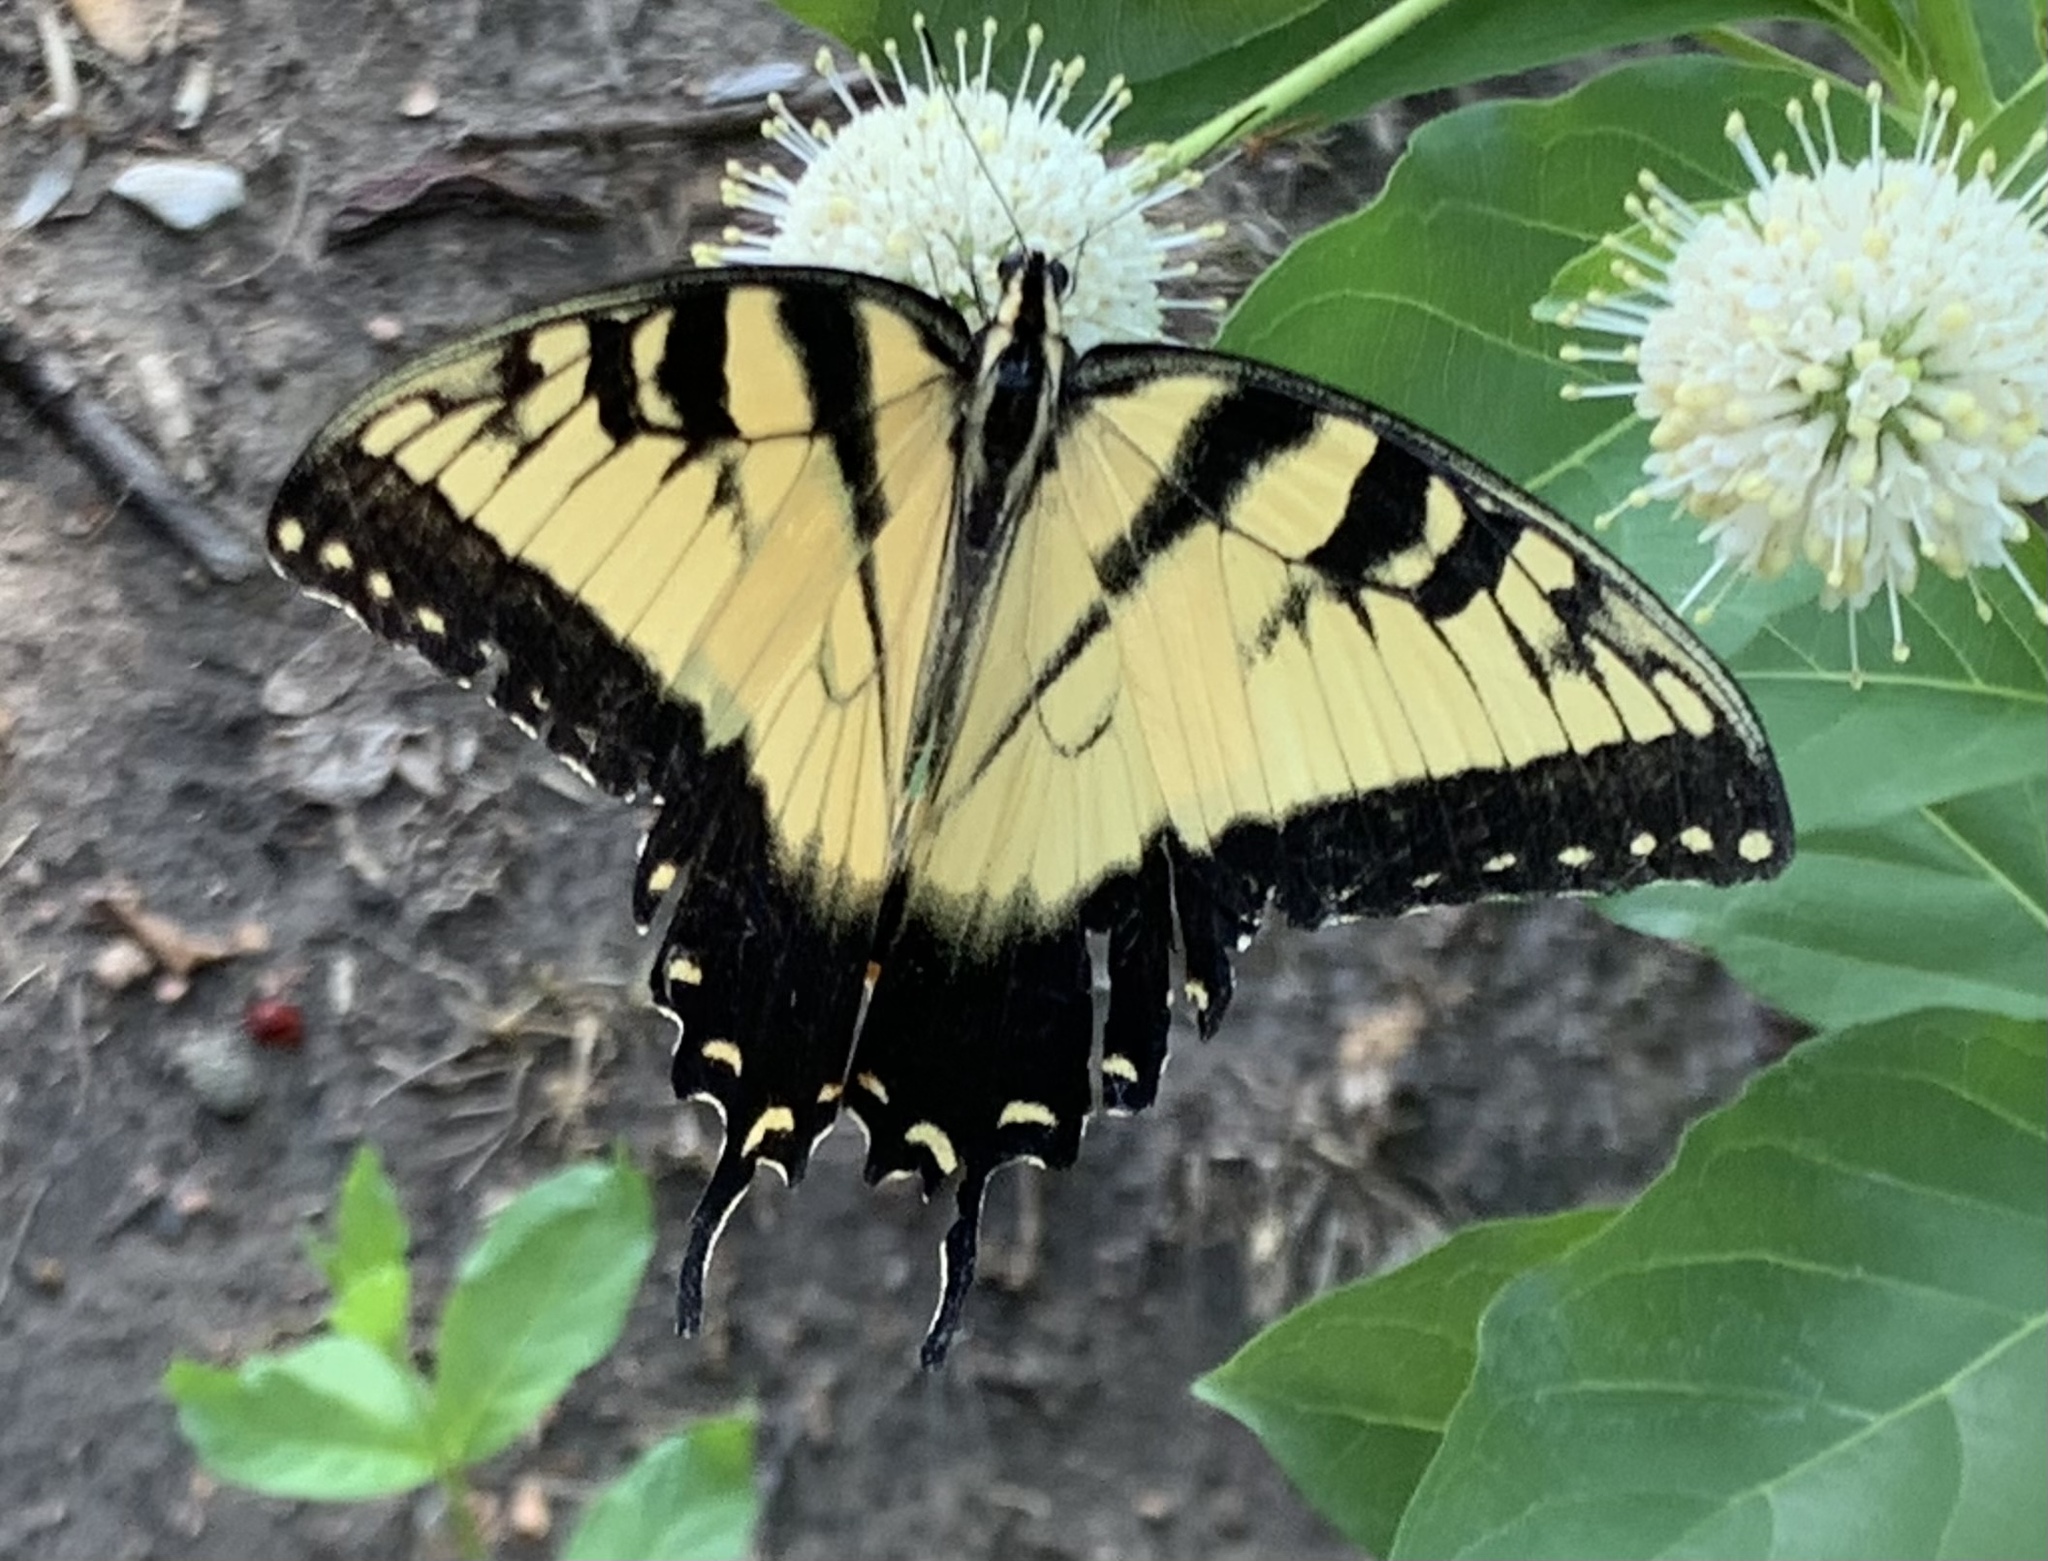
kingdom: Animalia
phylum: Arthropoda
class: Insecta
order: Lepidoptera
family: Papilionidae
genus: Papilio
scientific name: Papilio glaucus
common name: Tiger swallowtail
